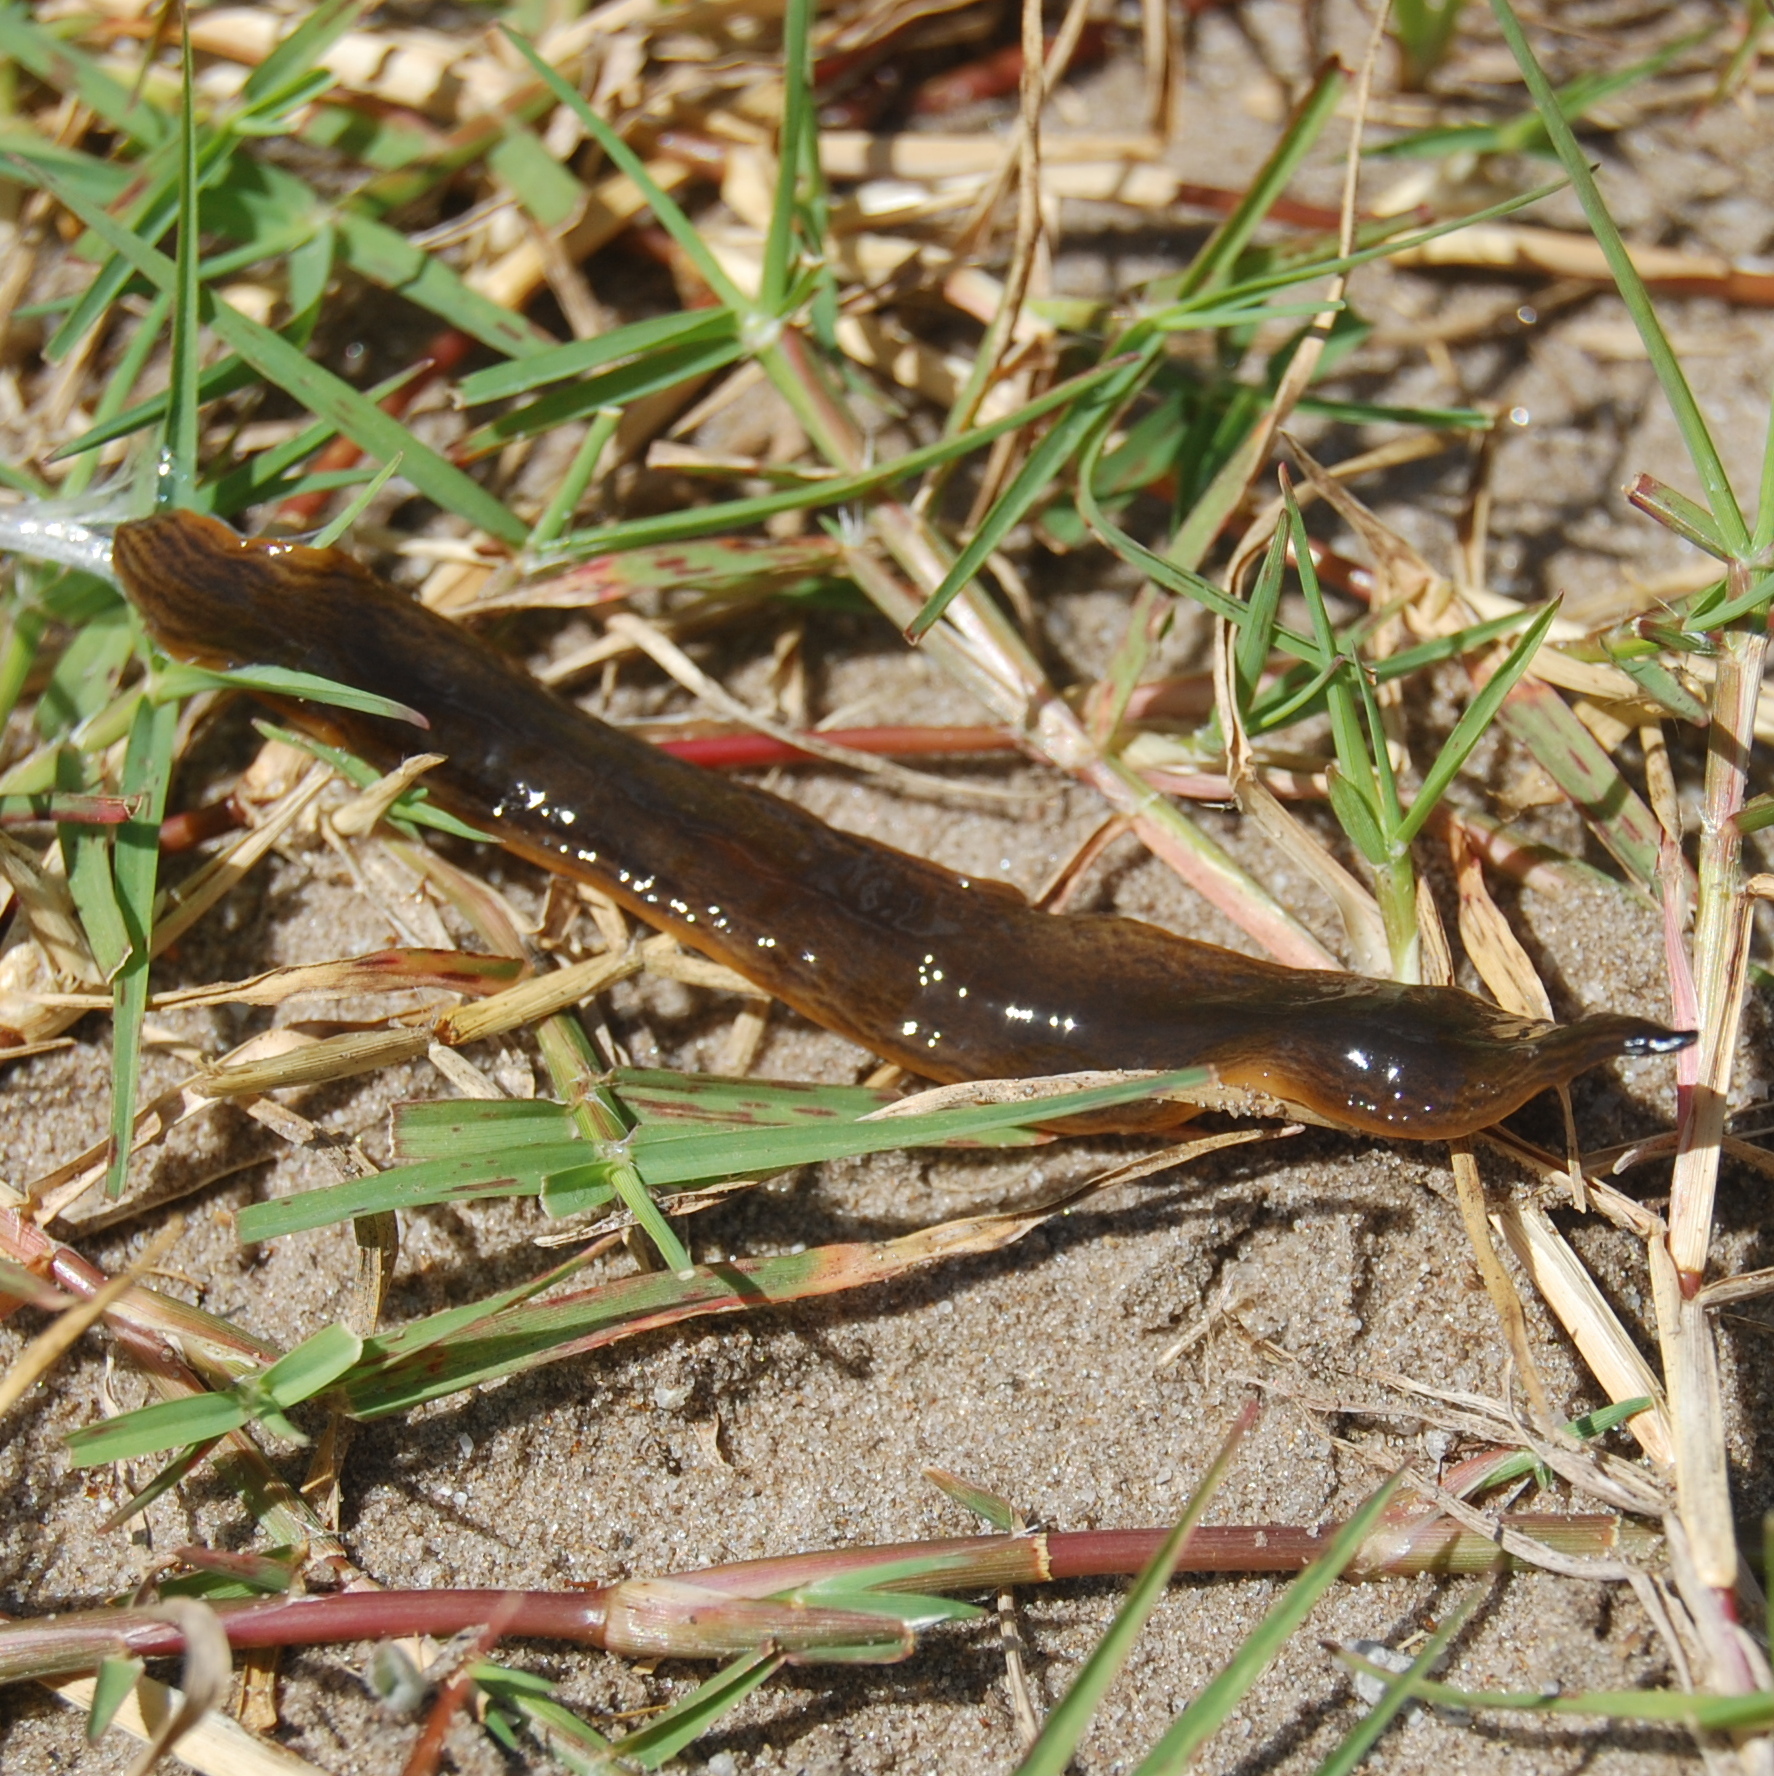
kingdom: Animalia
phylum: Platyhelminthes
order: Tricladida
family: Geoplanidae
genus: Obama
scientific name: Obama nungara
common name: Obama flatworm
